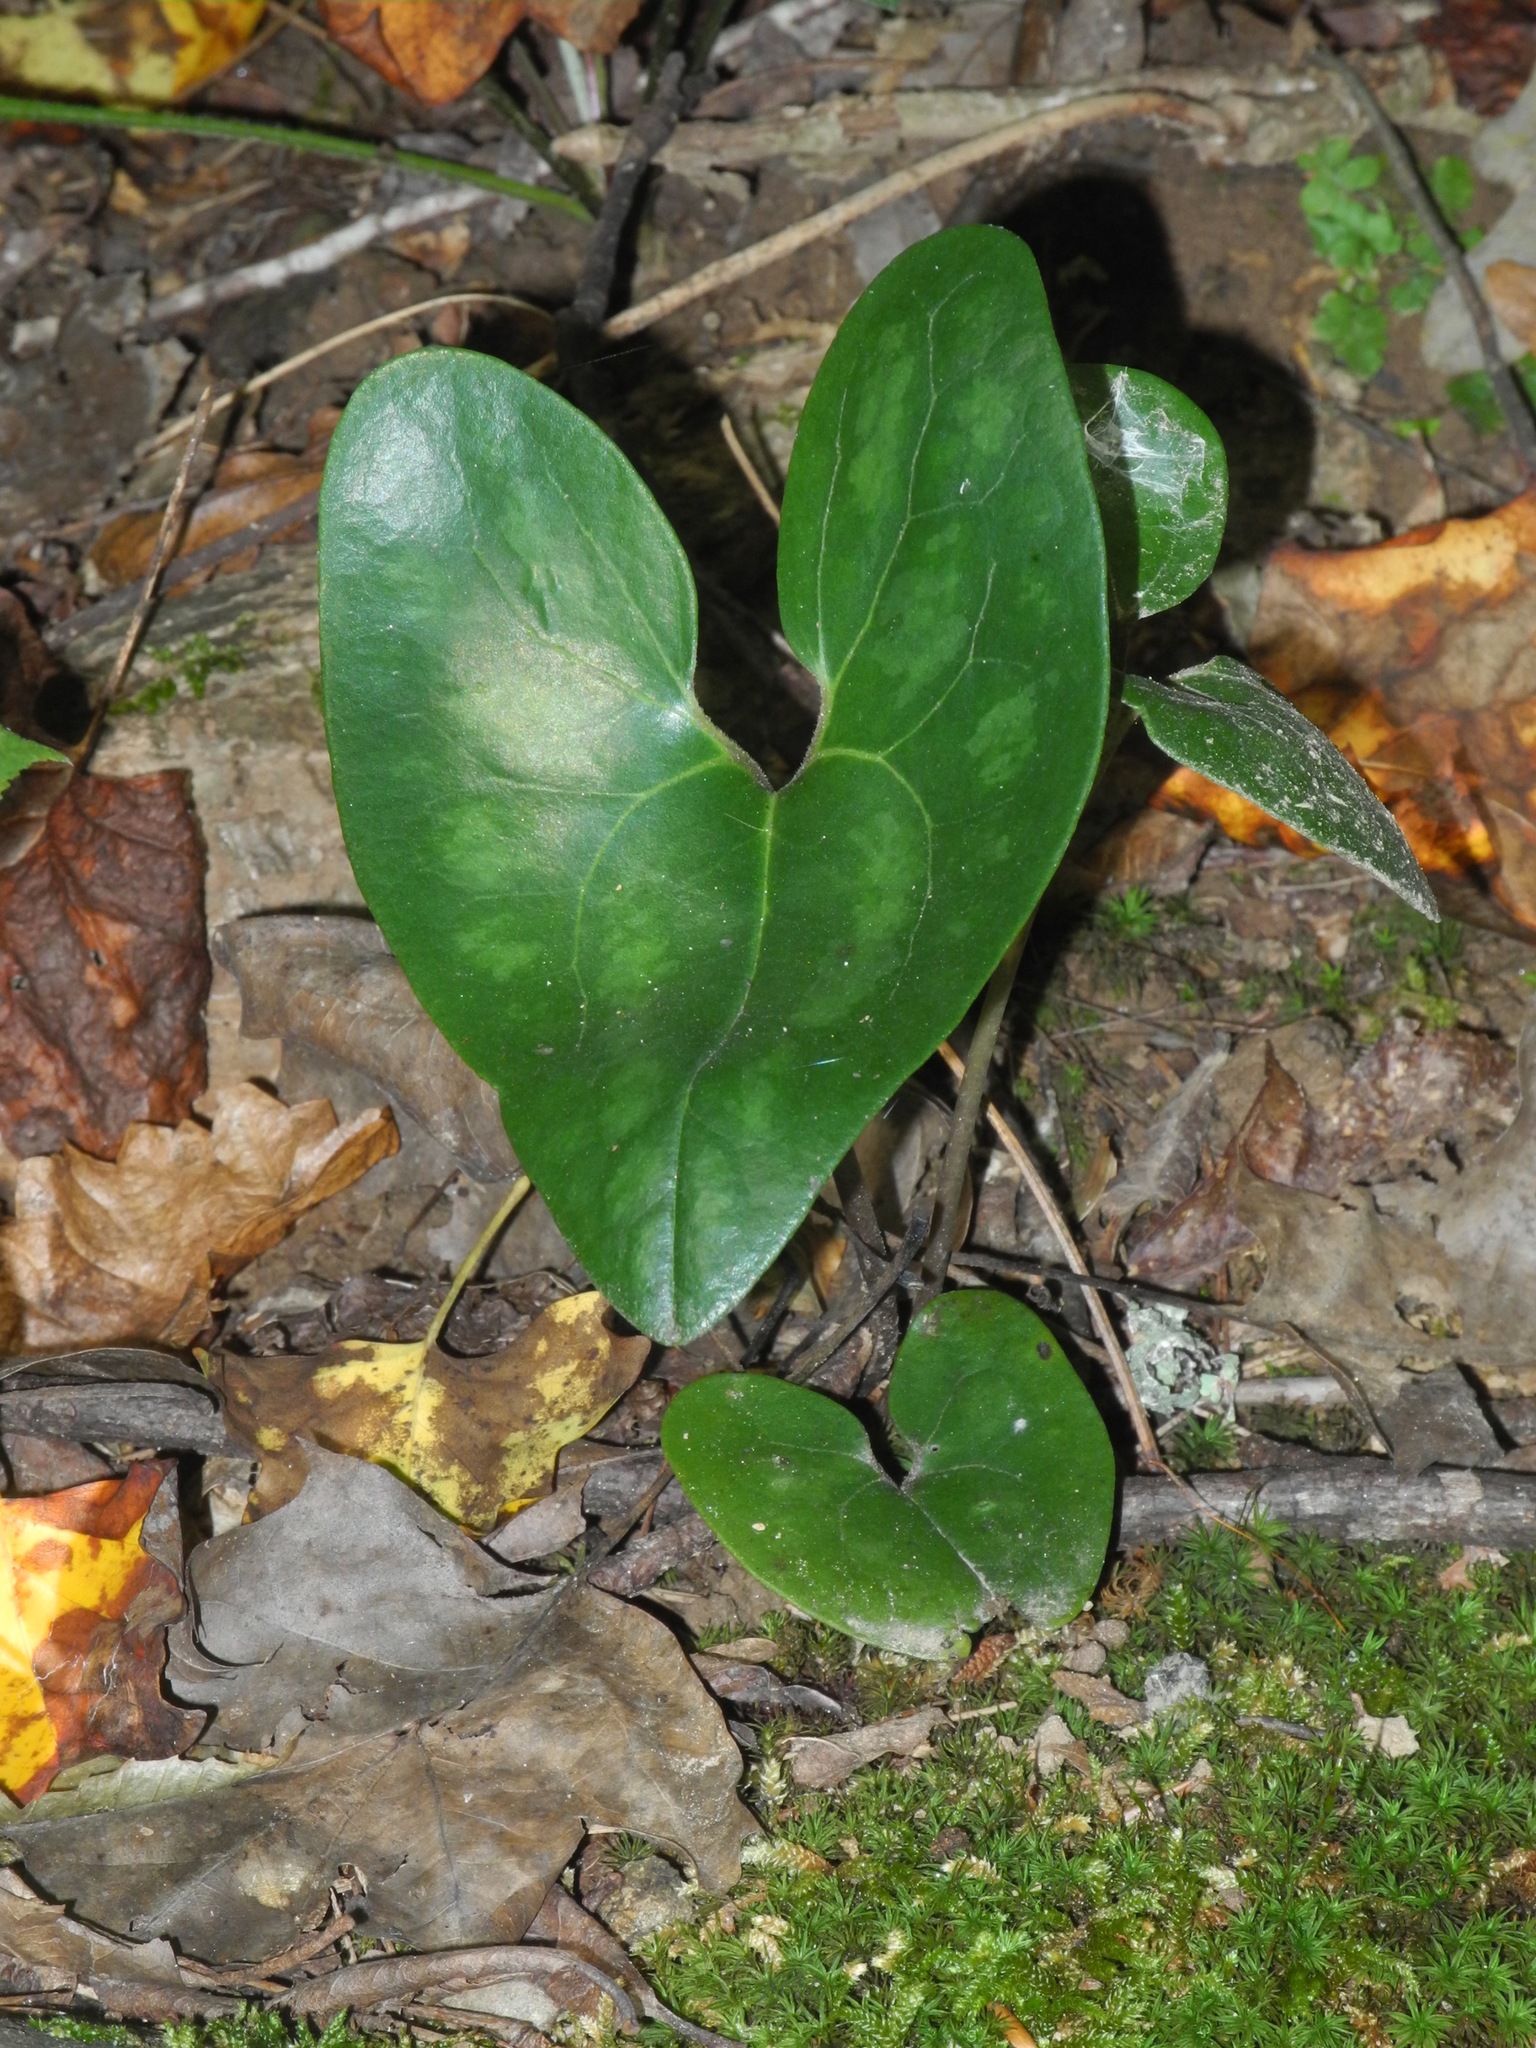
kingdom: Plantae
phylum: Tracheophyta
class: Magnoliopsida
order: Piperales
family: Aristolochiaceae
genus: Hexastylis
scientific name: Hexastylis arifolia
